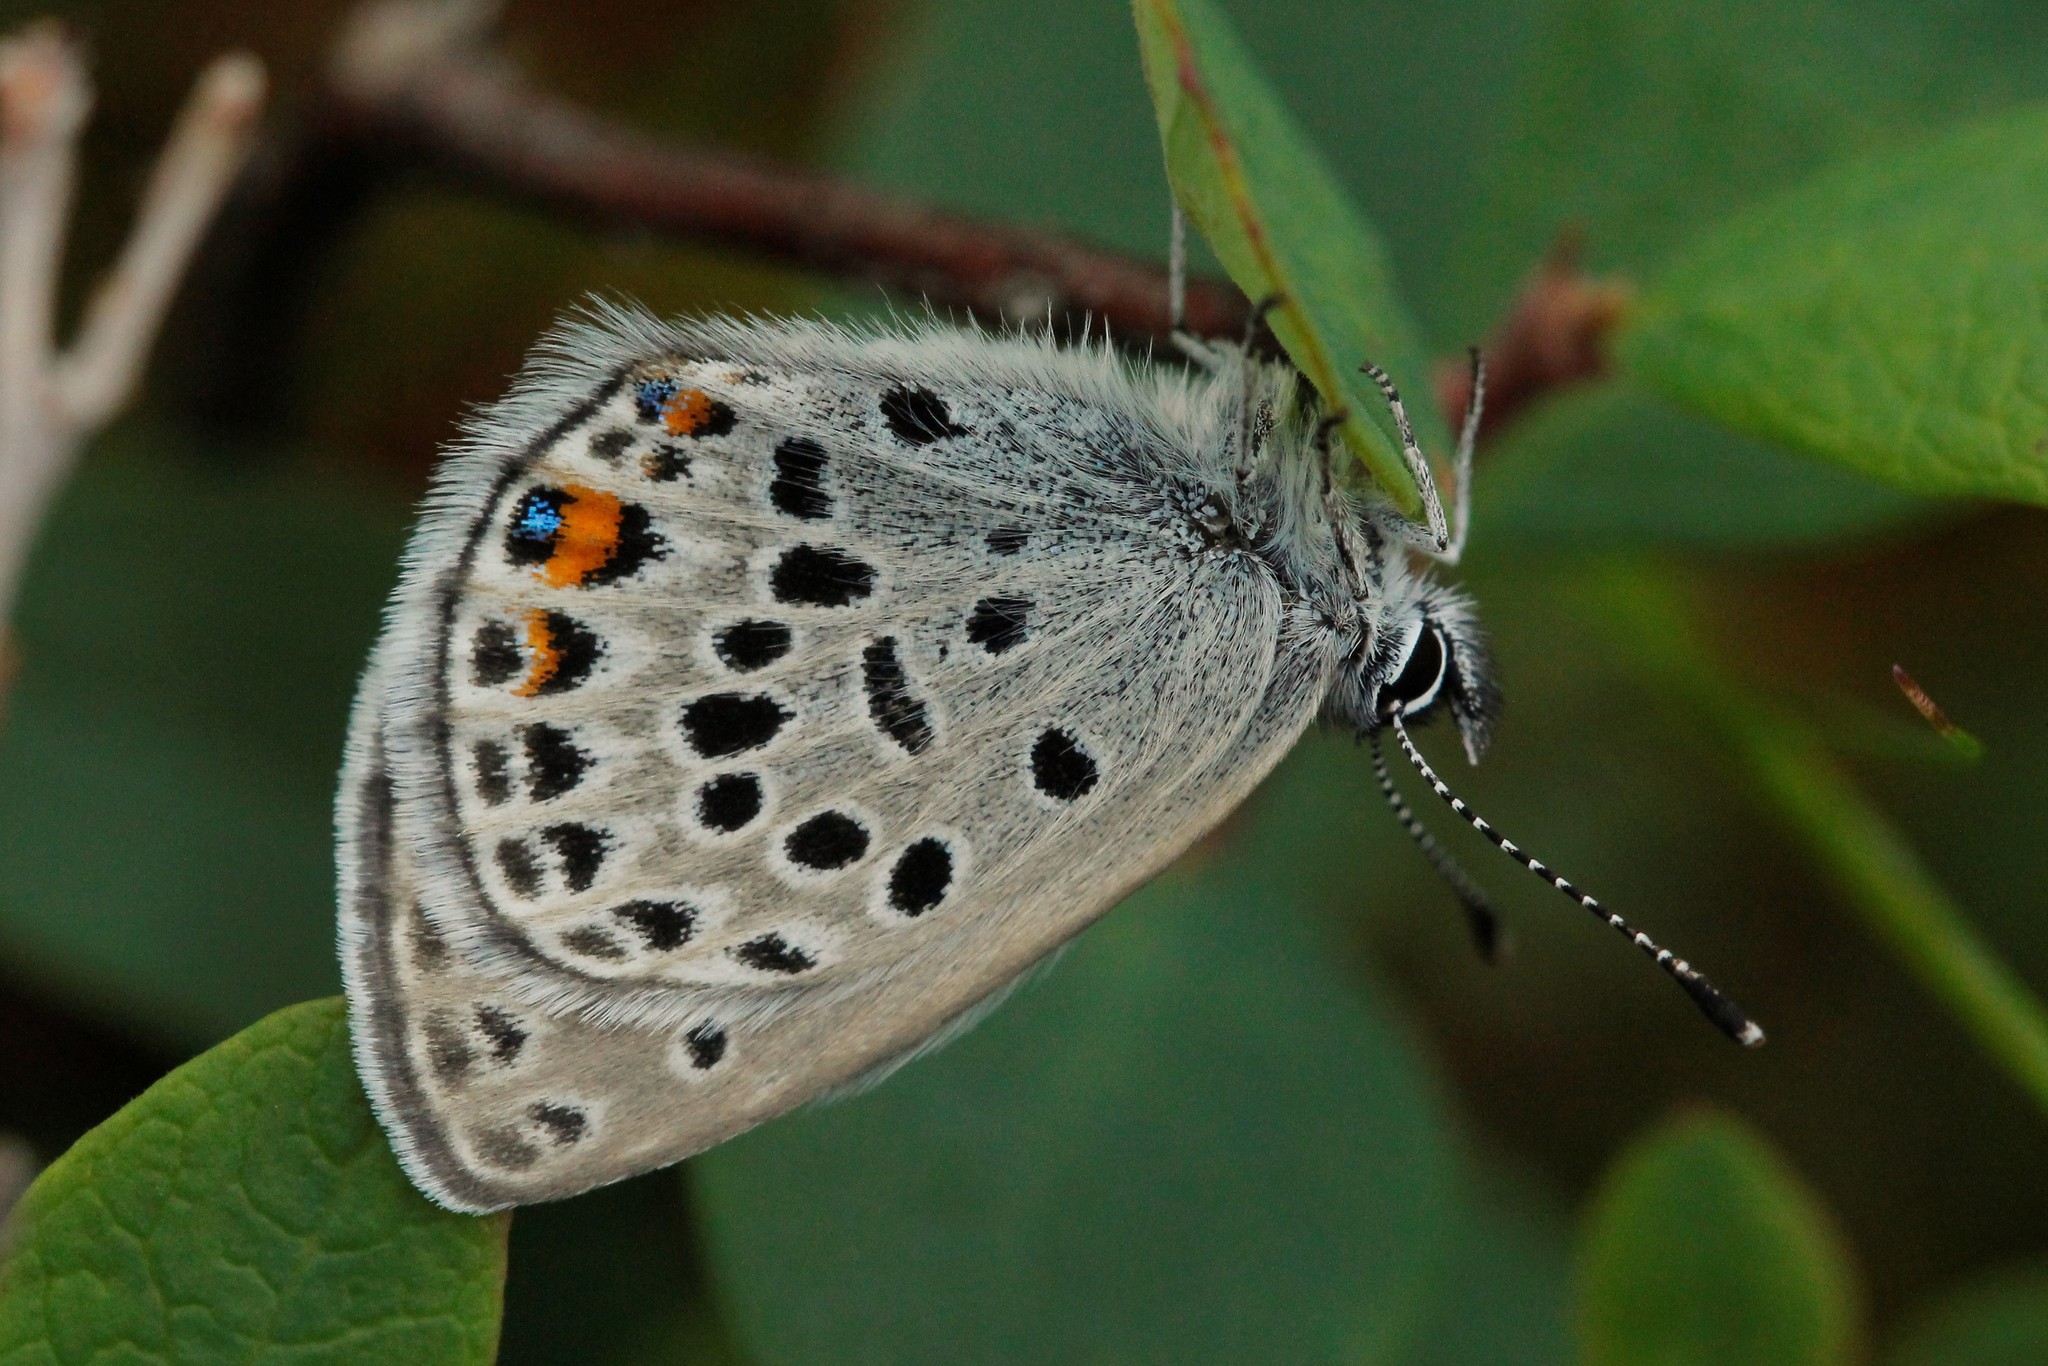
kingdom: Animalia
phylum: Arthropoda
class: Insecta
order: Lepidoptera
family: Lycaenidae
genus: Vacciniina
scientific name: Vacciniina optilete
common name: Cranberry blue
